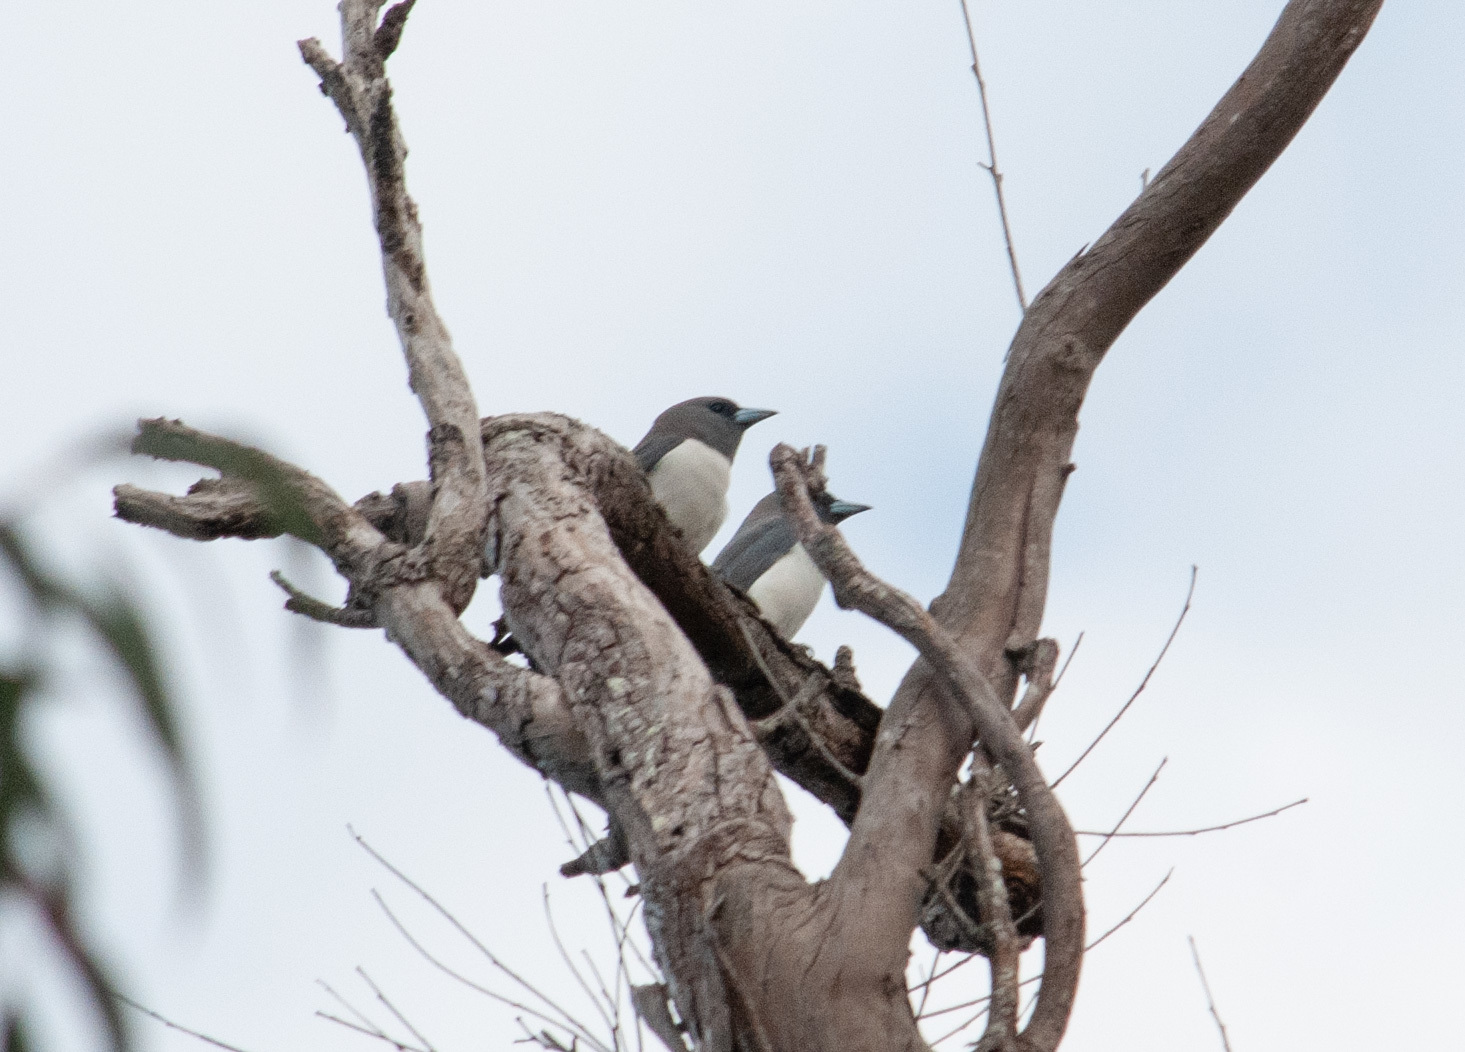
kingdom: Animalia
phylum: Chordata
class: Aves
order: Passeriformes
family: Artamidae
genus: Artamus
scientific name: Artamus leucoryn
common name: White-breasted woodswallow
